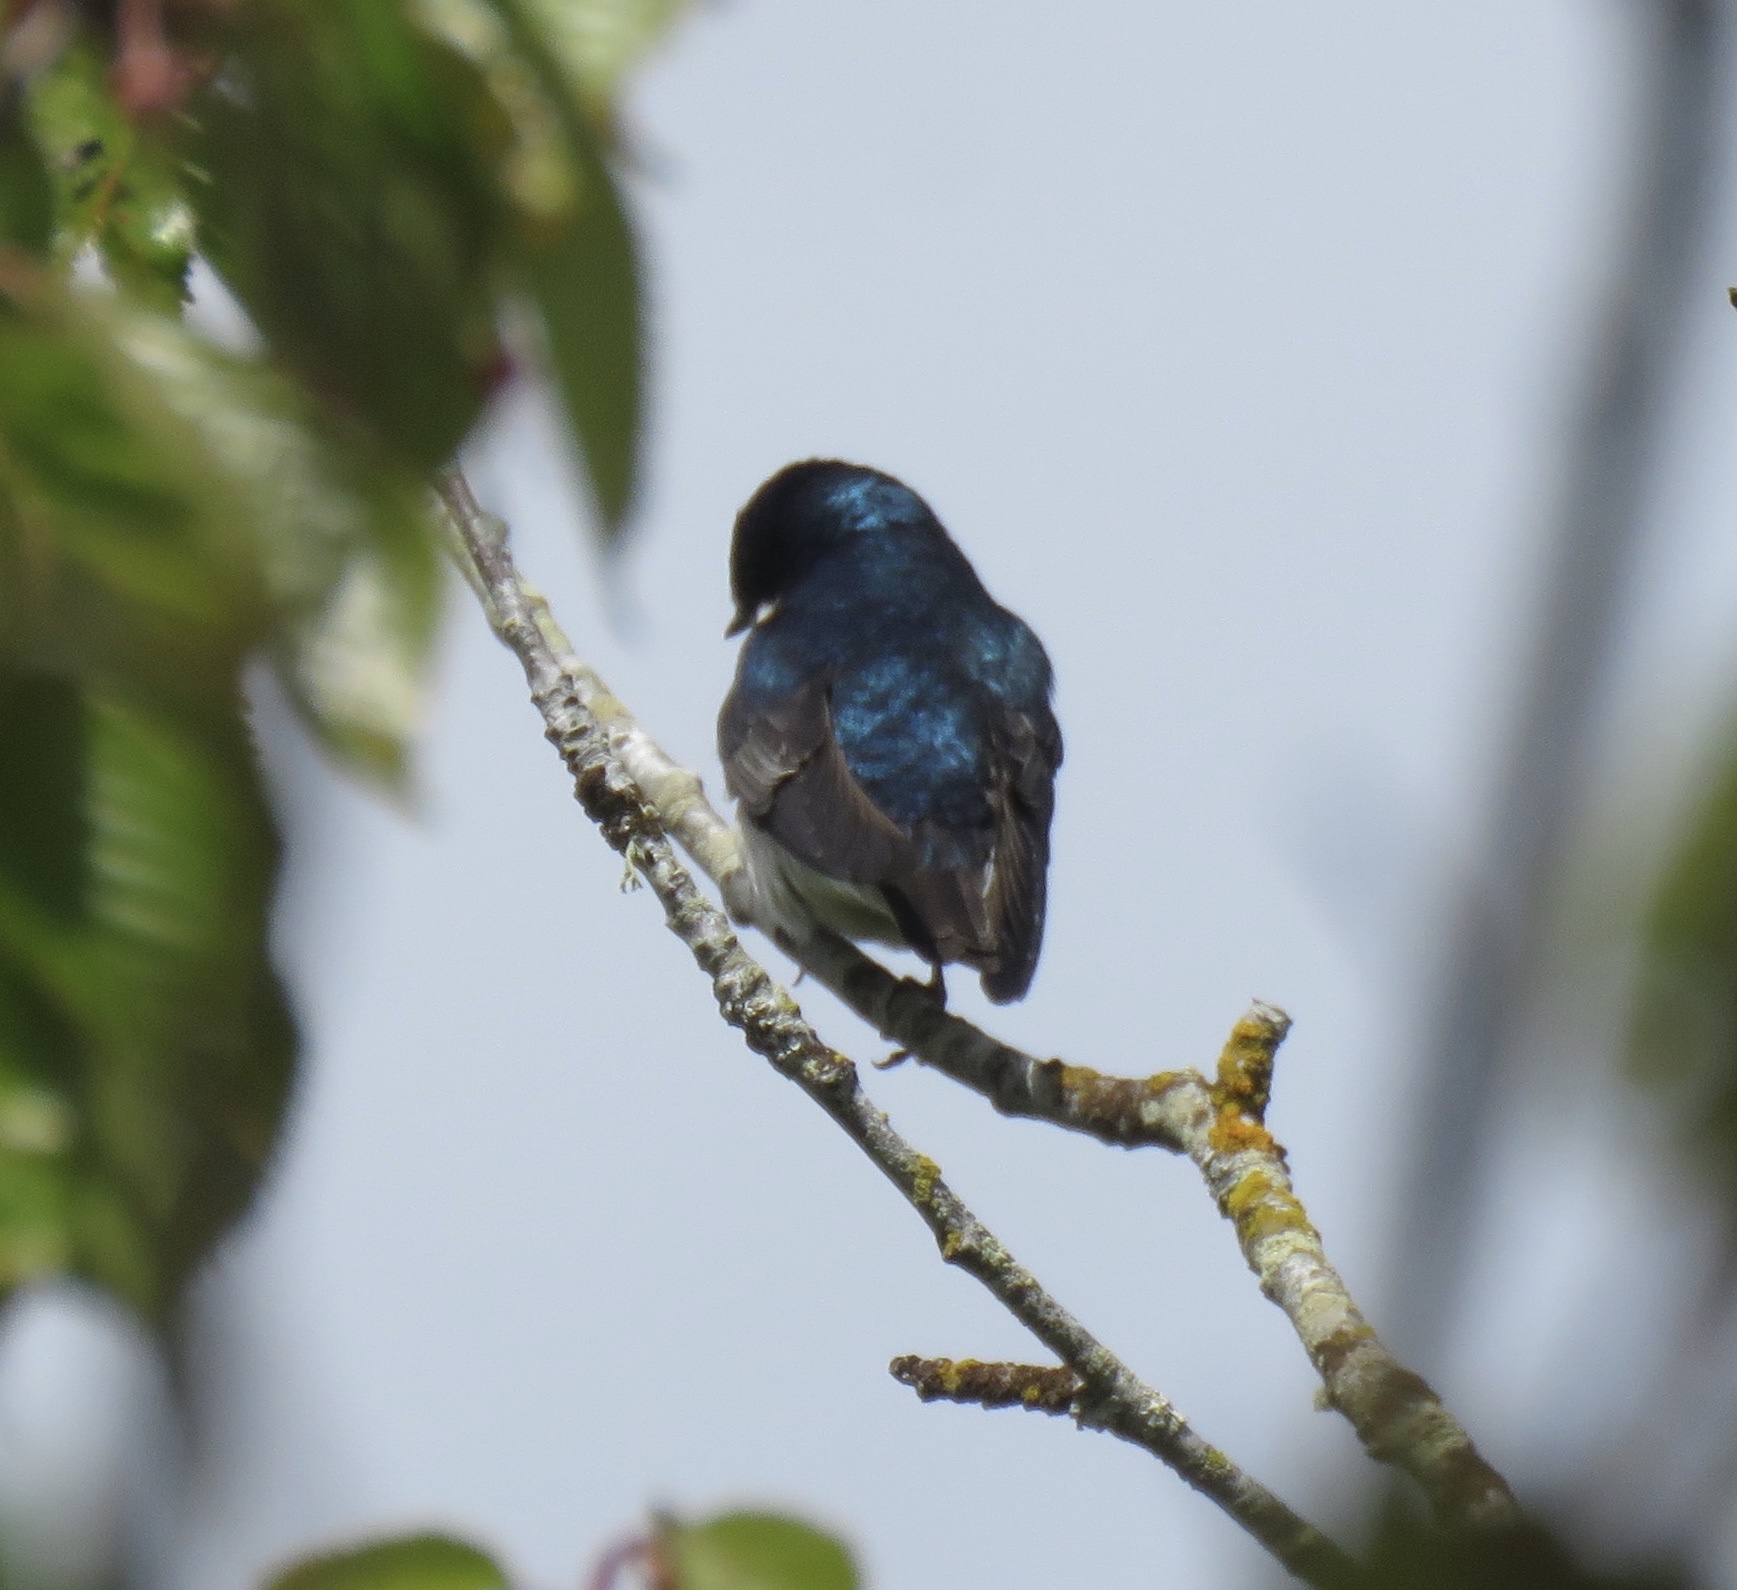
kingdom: Animalia
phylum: Chordata
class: Aves
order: Passeriformes
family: Hirundinidae
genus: Tachycineta
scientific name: Tachycineta bicolor
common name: Tree swallow
